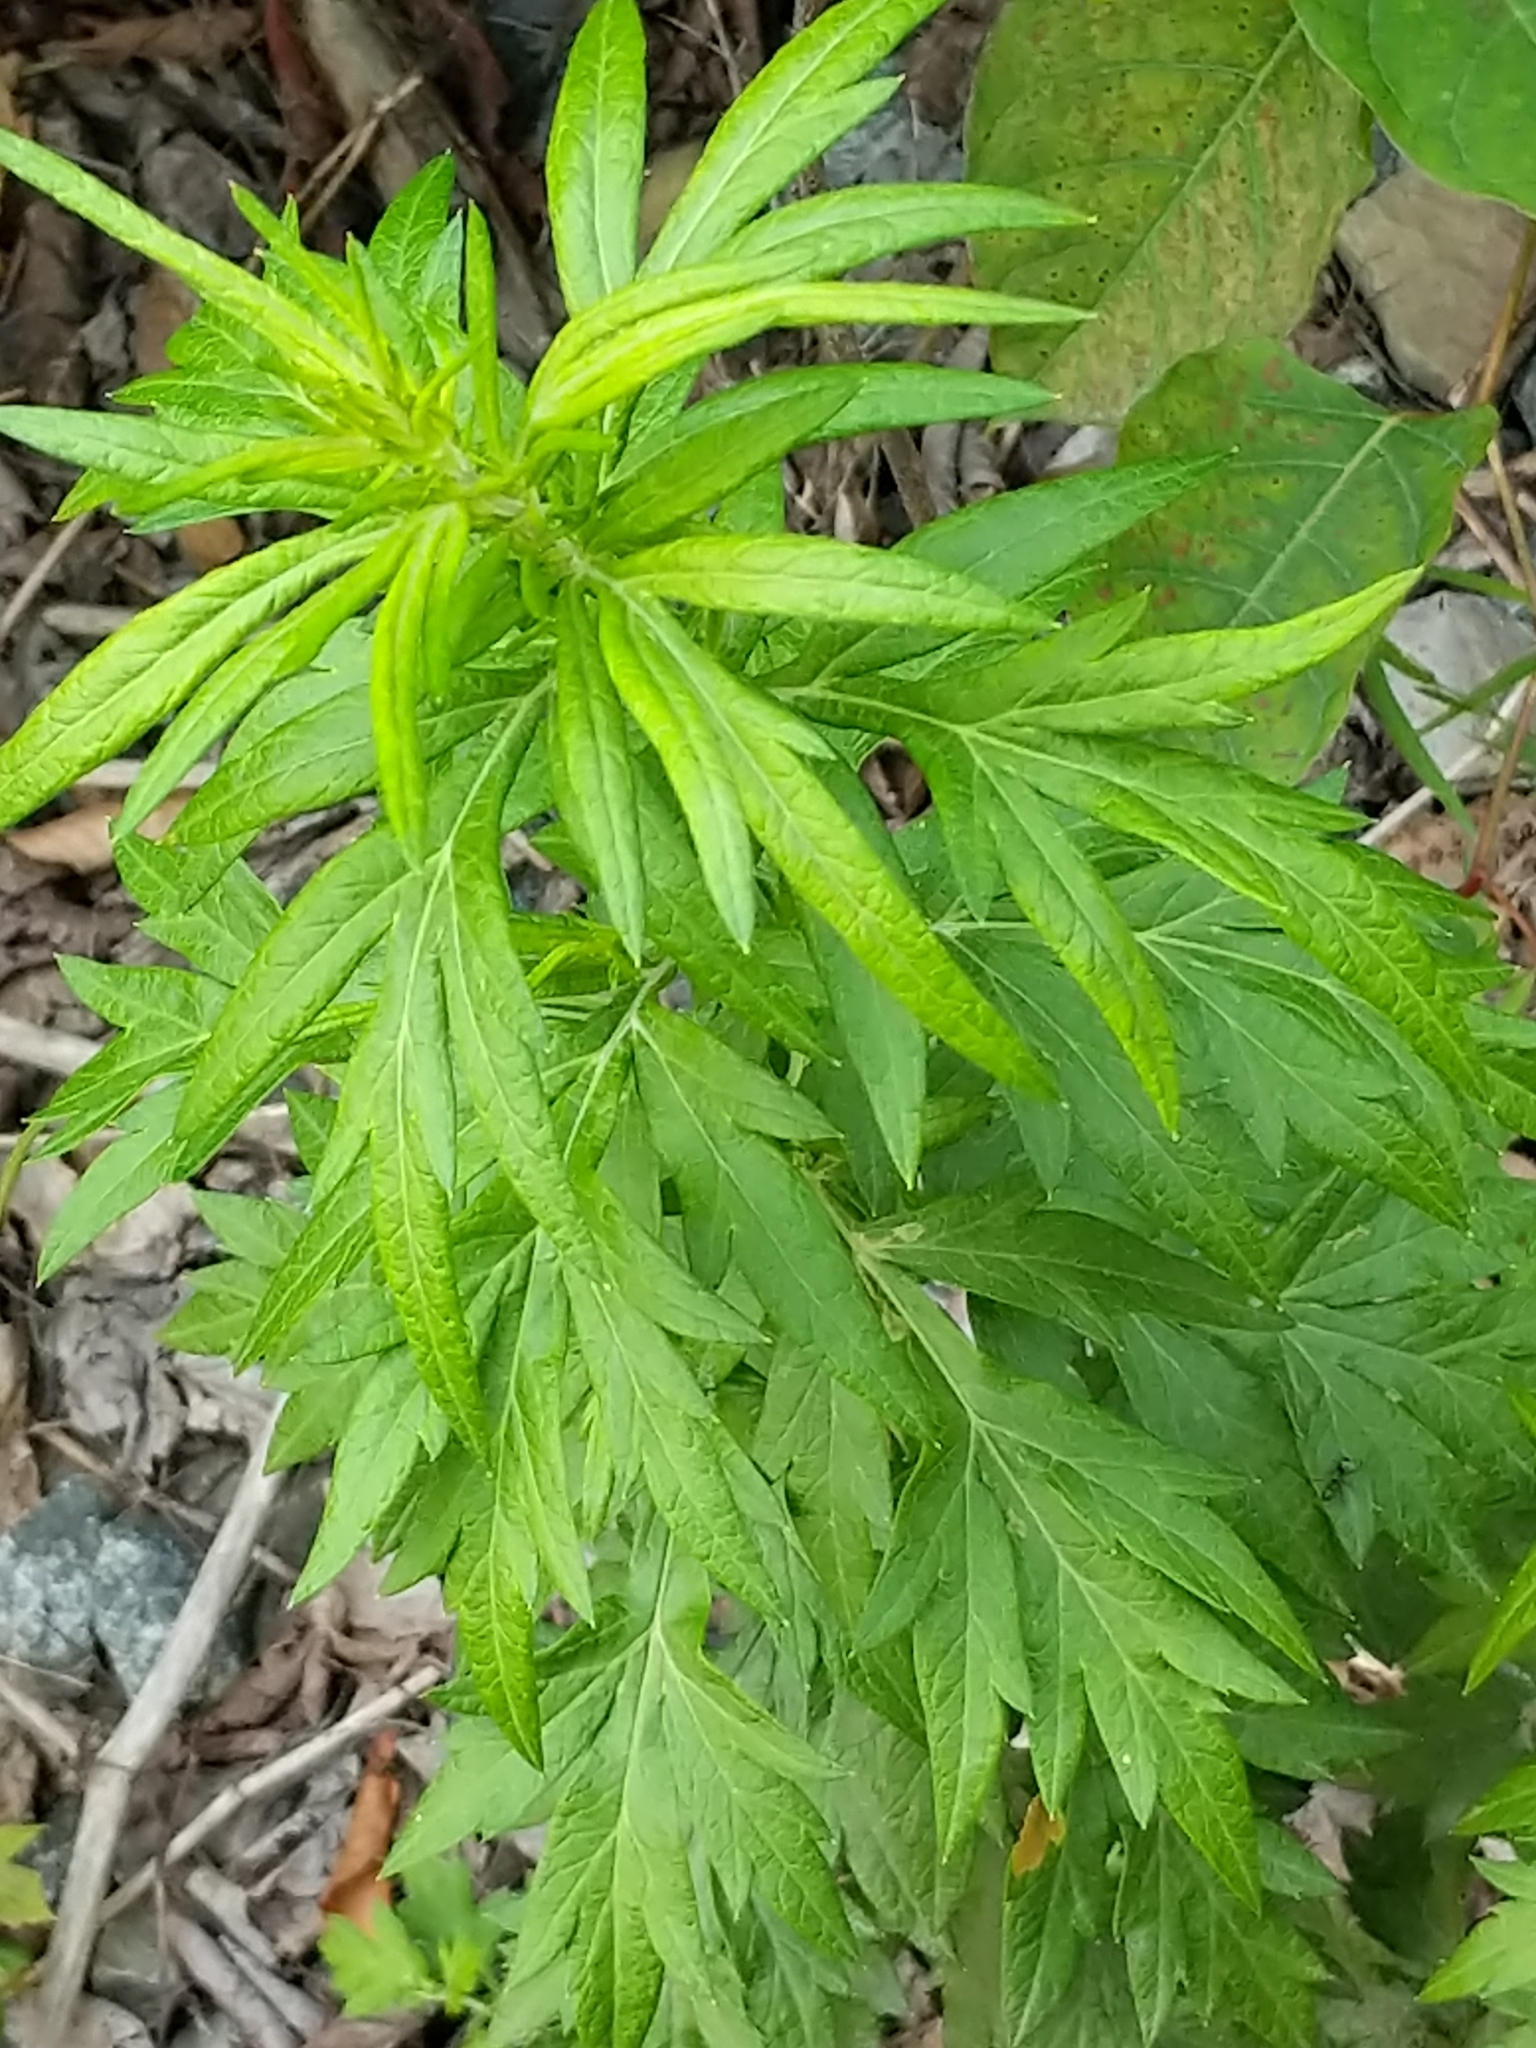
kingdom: Plantae
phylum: Tracheophyta
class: Magnoliopsida
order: Asterales
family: Asteraceae
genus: Artemisia
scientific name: Artemisia vulgaris
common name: Mugwort
